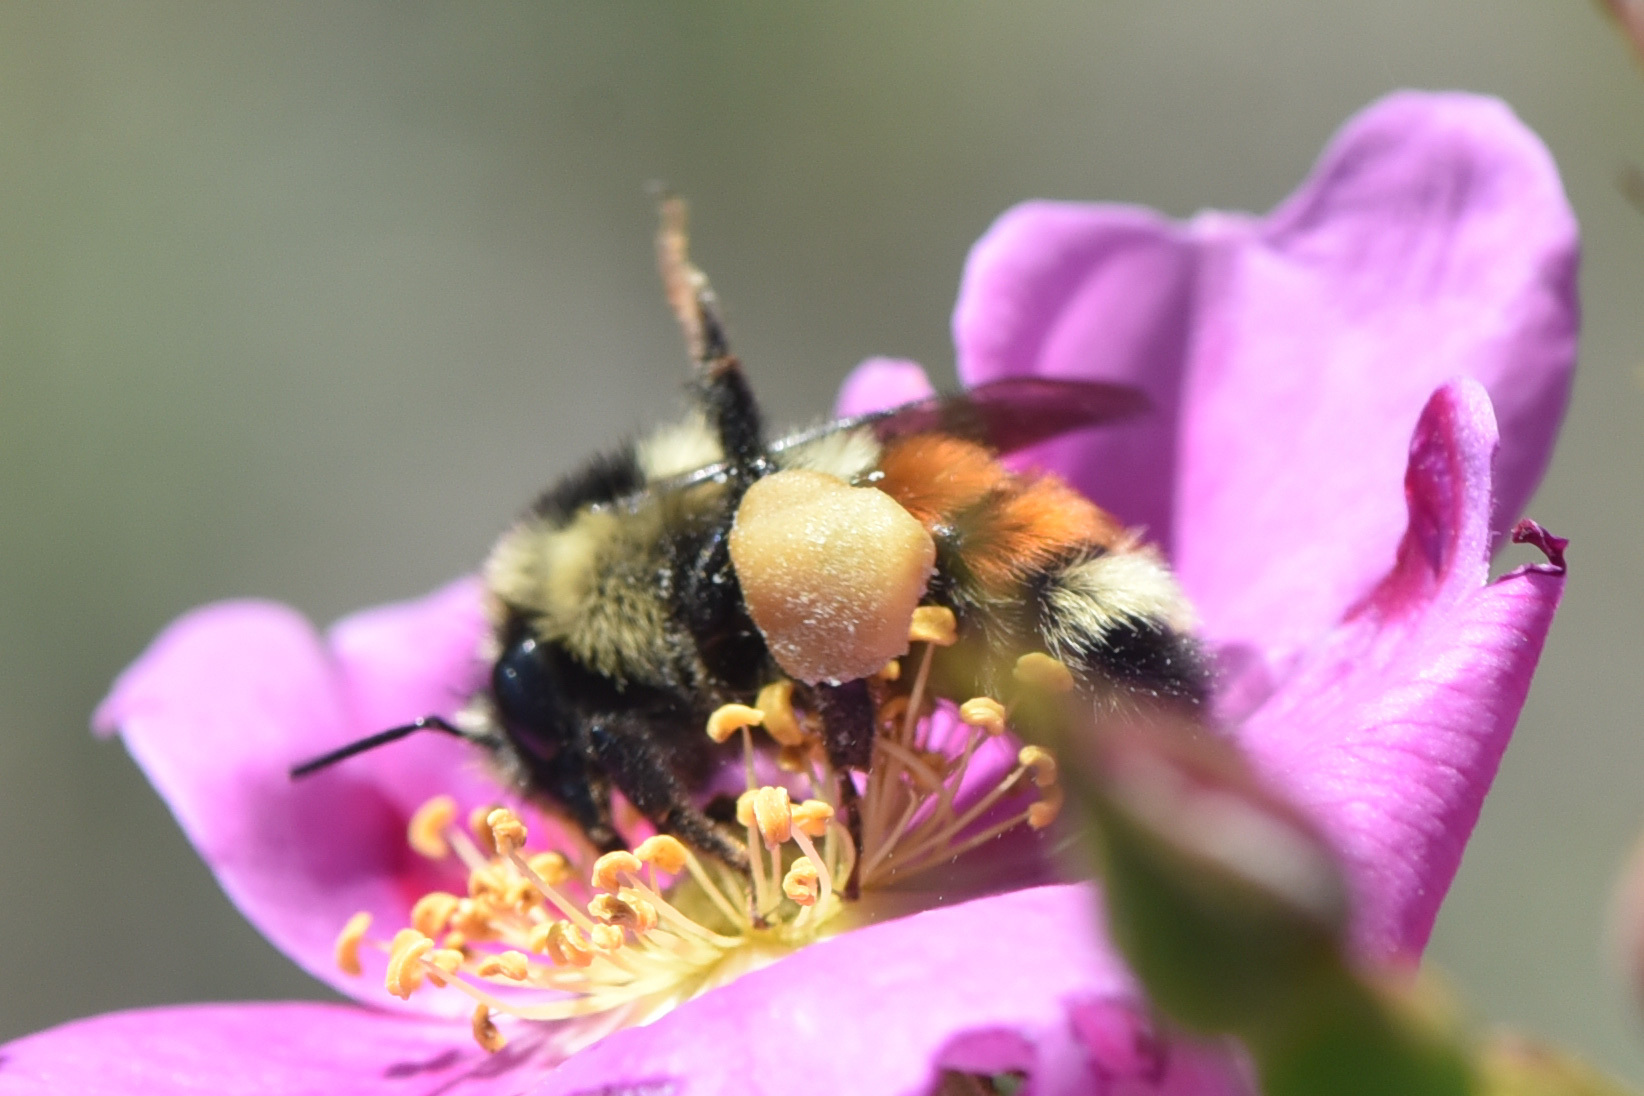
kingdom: Animalia
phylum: Arthropoda
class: Insecta
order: Hymenoptera
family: Apidae
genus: Bombus
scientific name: Bombus ternarius
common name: Tri-colored bumble bee
